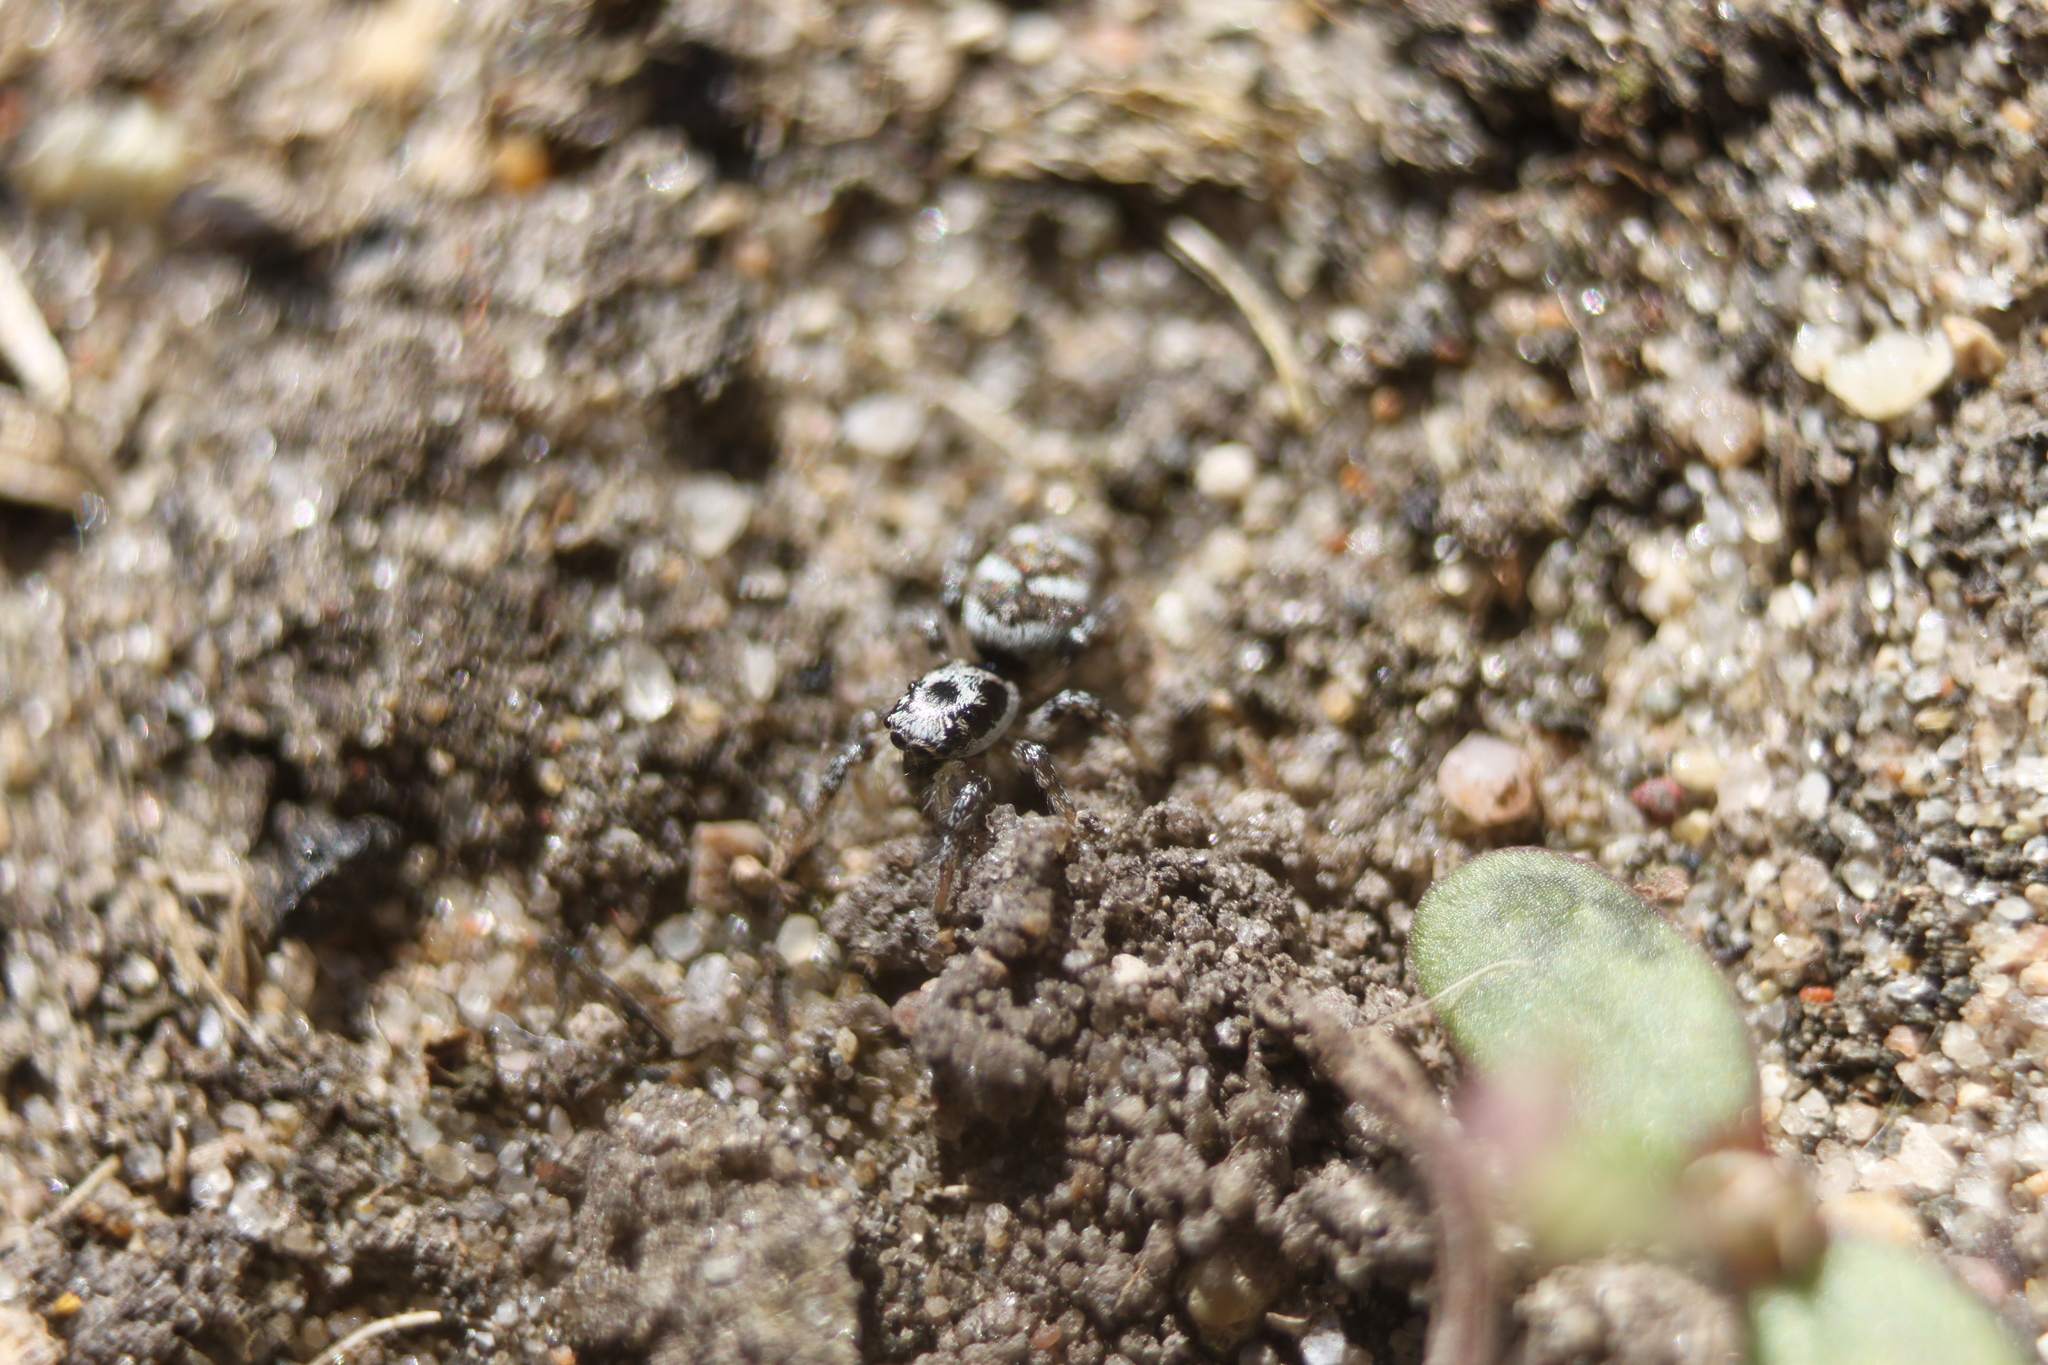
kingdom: Animalia
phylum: Arthropoda
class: Arachnida
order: Araneae
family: Salticidae
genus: Salticus
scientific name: Salticus scenicus
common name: Zebra jumper
